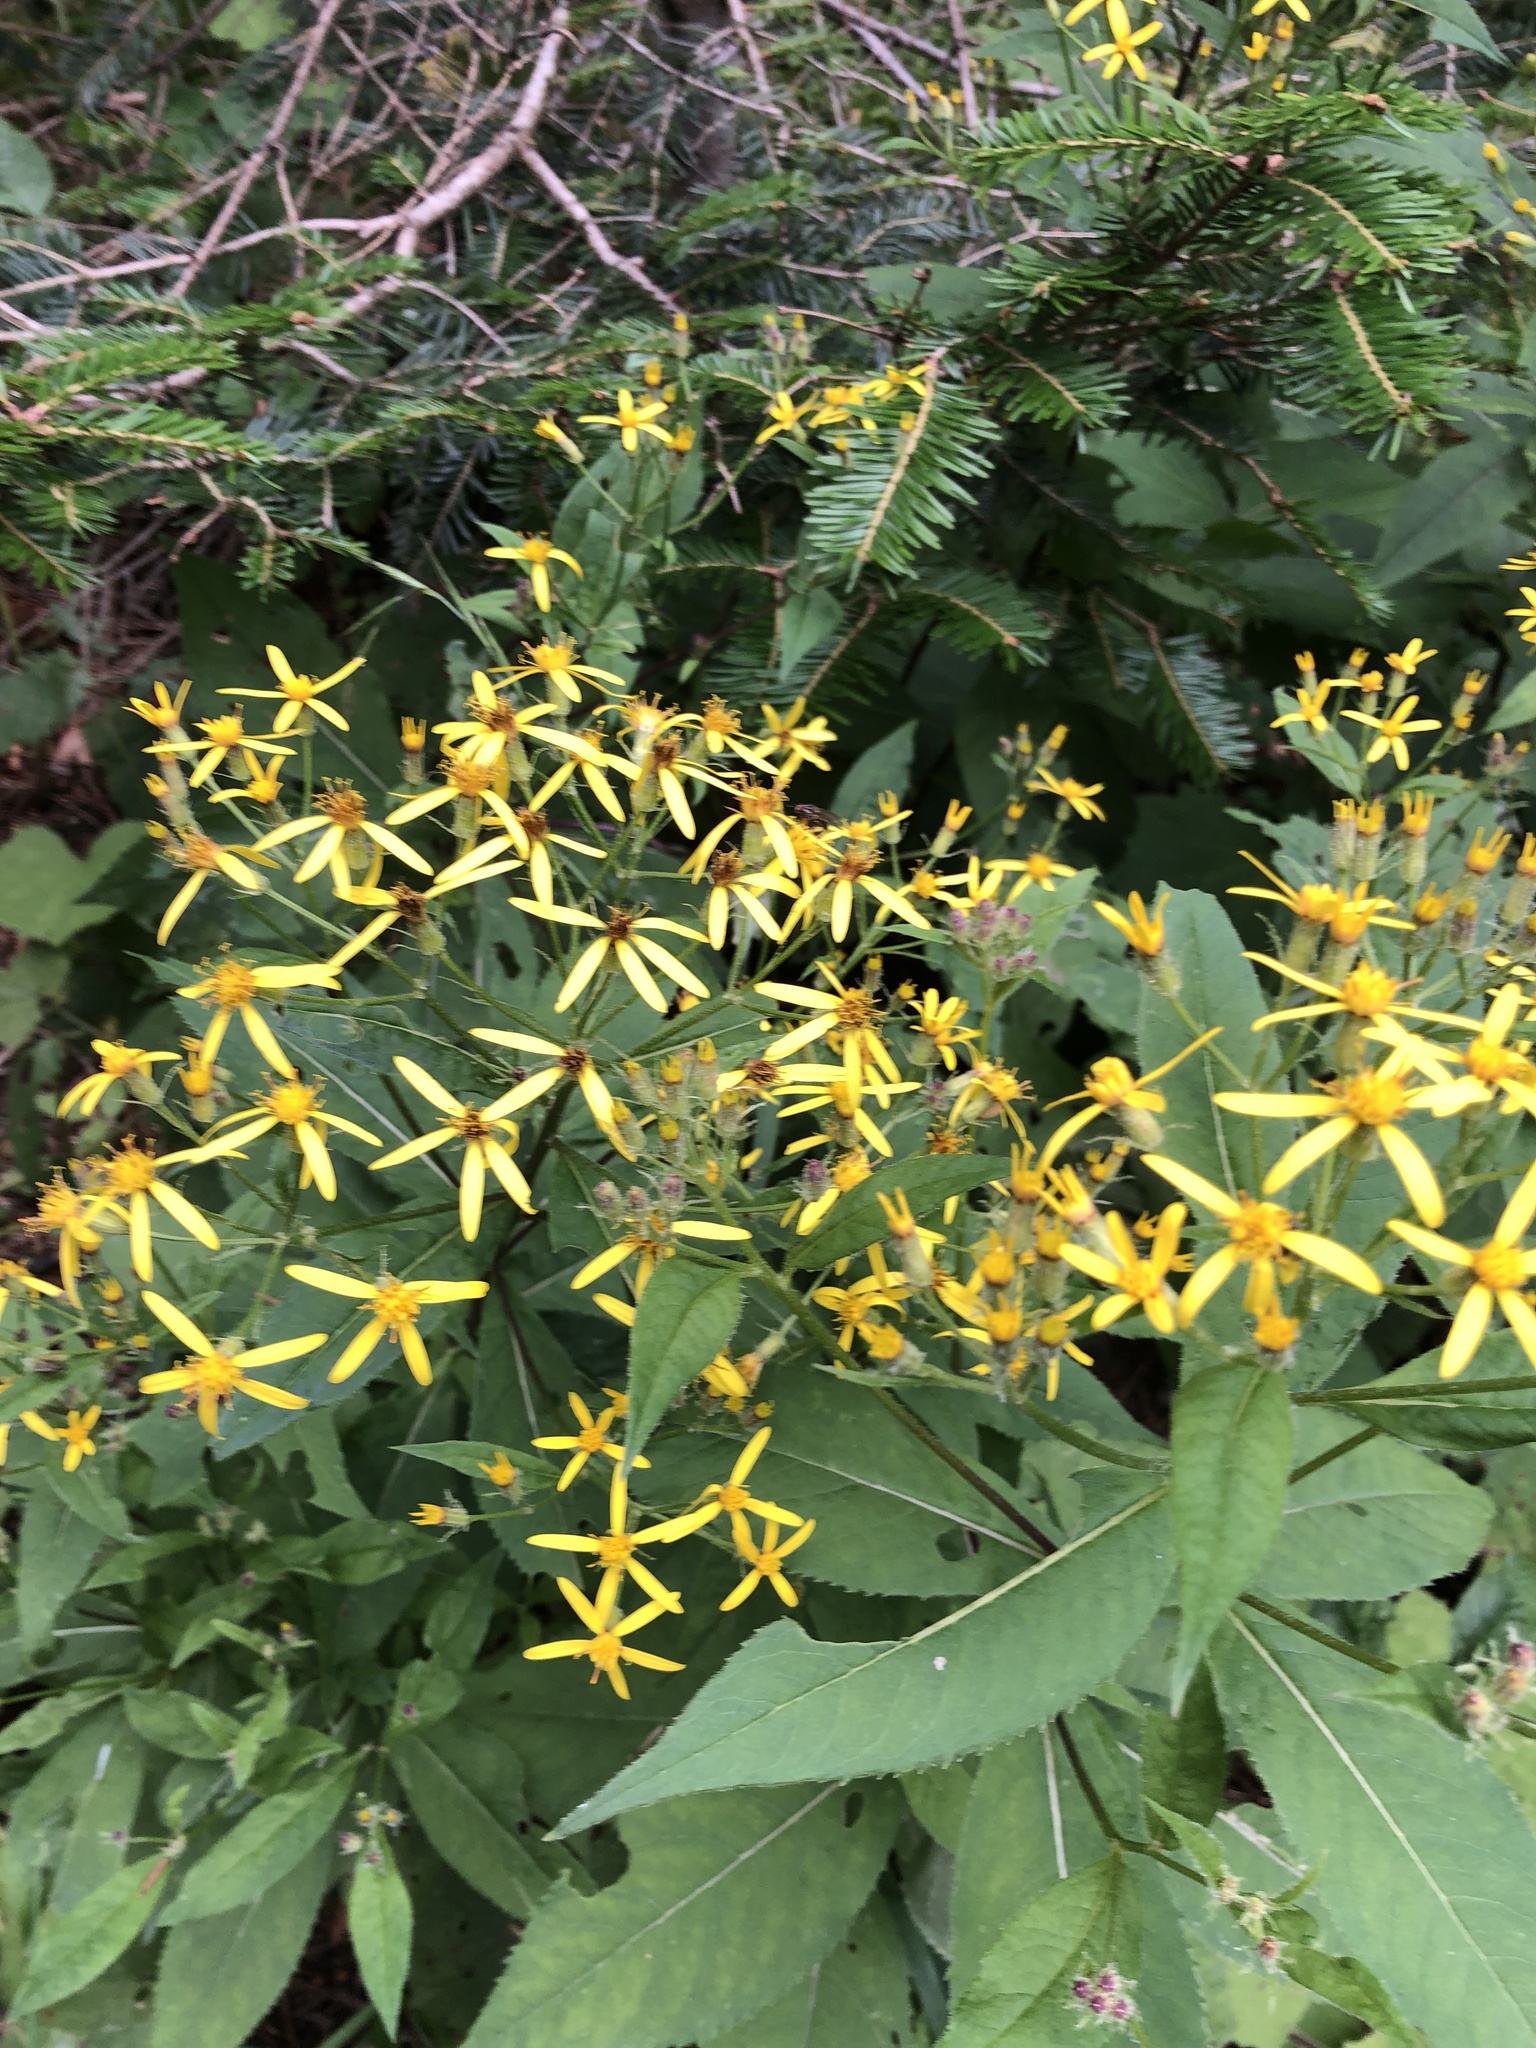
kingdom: Plantae
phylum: Tracheophyta
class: Magnoliopsida
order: Asterales
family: Asteraceae
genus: Senecio
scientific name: Senecio ovatus
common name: Wood ragwort
